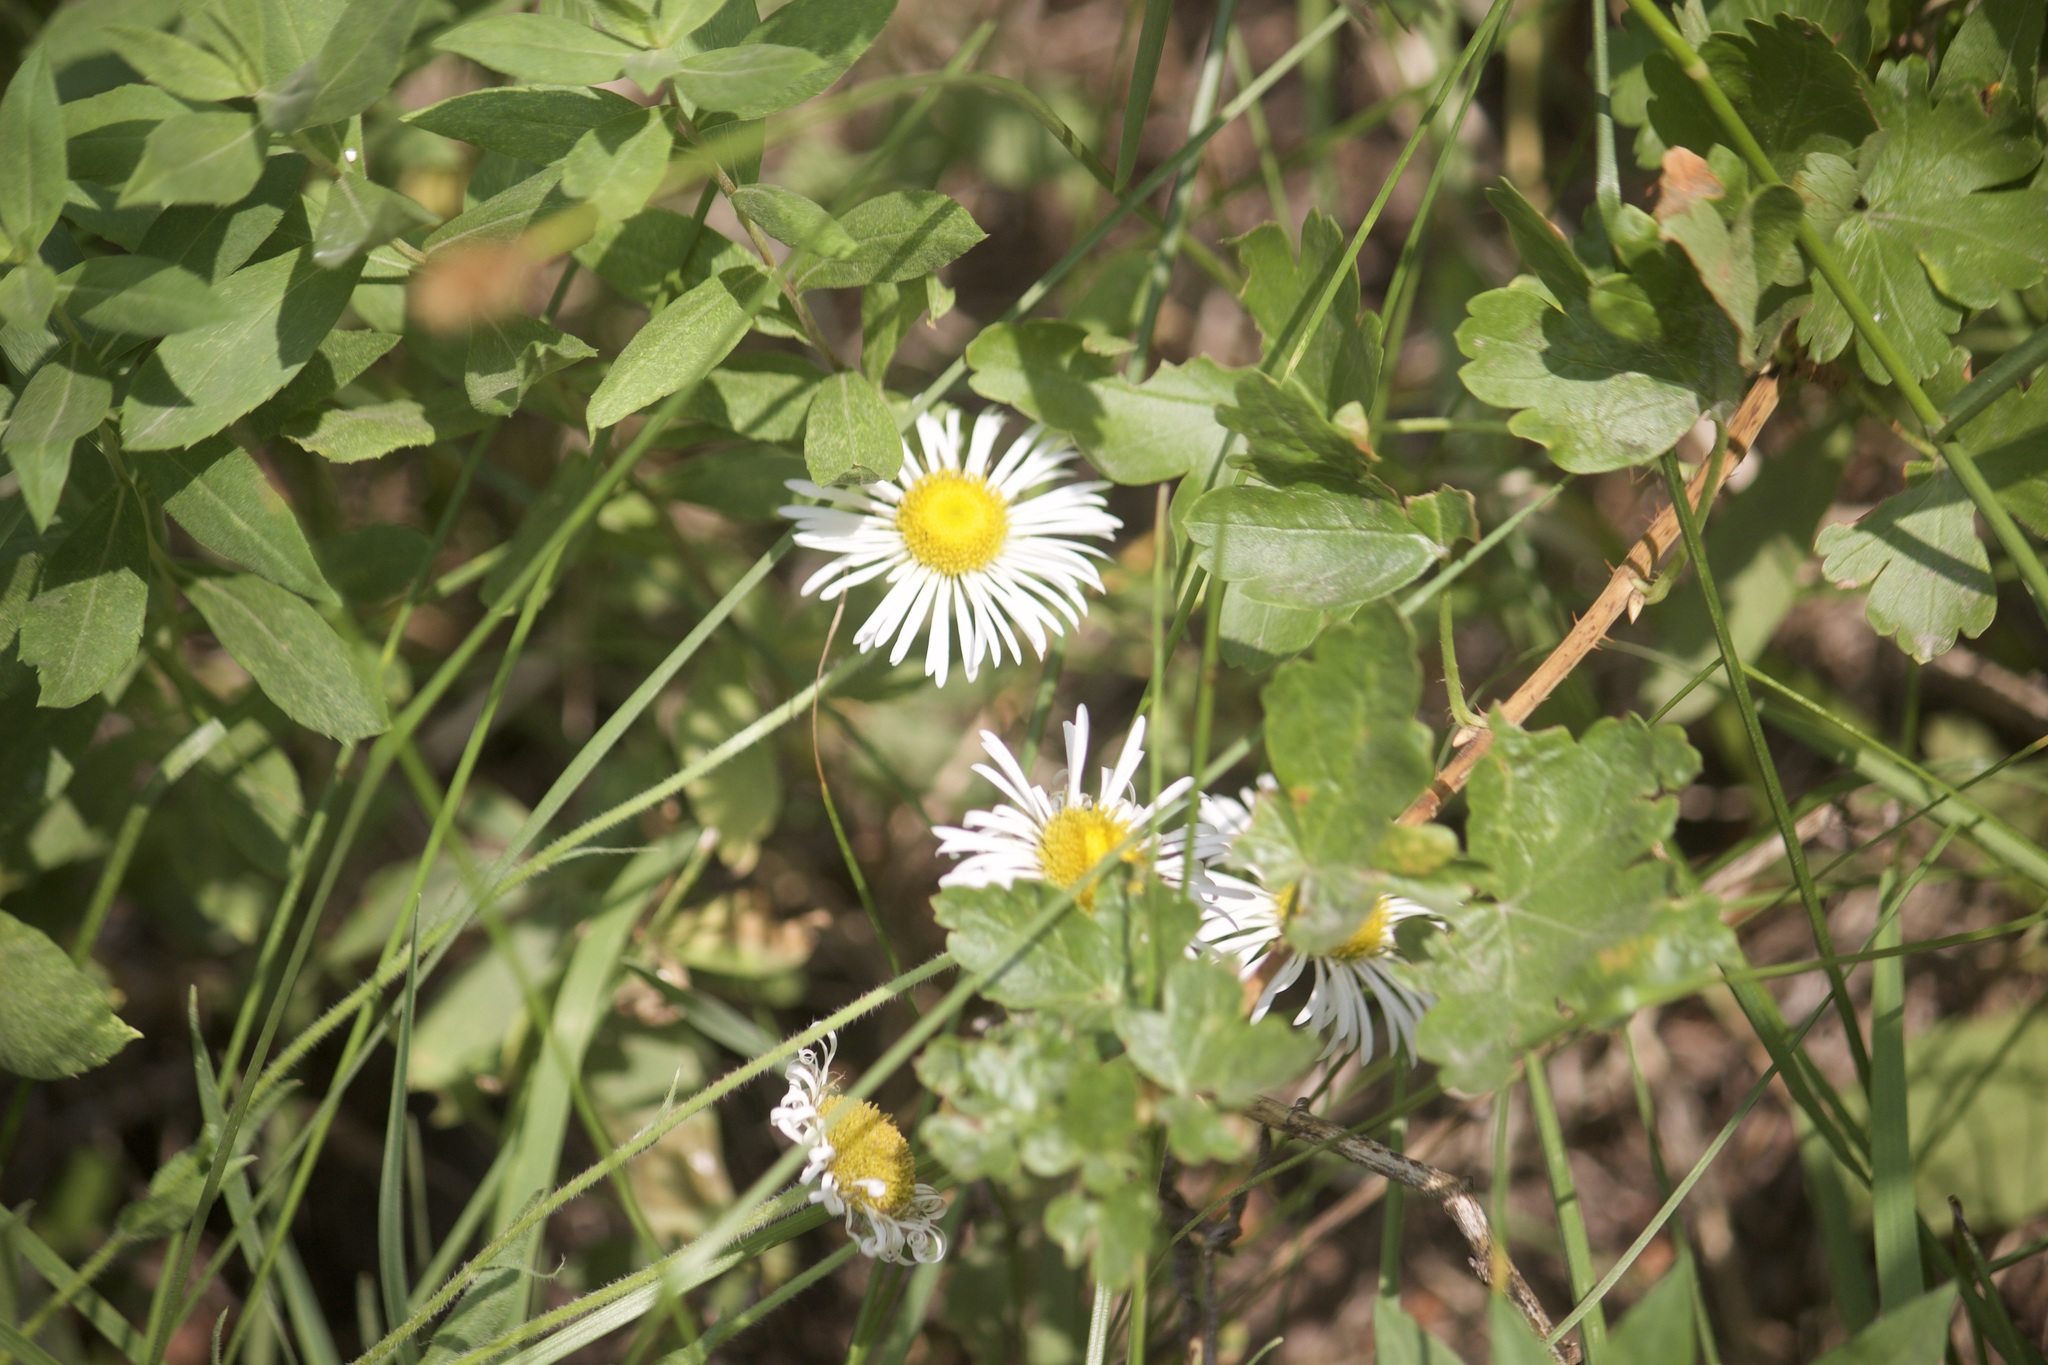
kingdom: Plantae
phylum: Tracheophyta
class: Magnoliopsida
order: Asterales
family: Asteraceae
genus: Erigeron
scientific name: Erigeron coulteri
